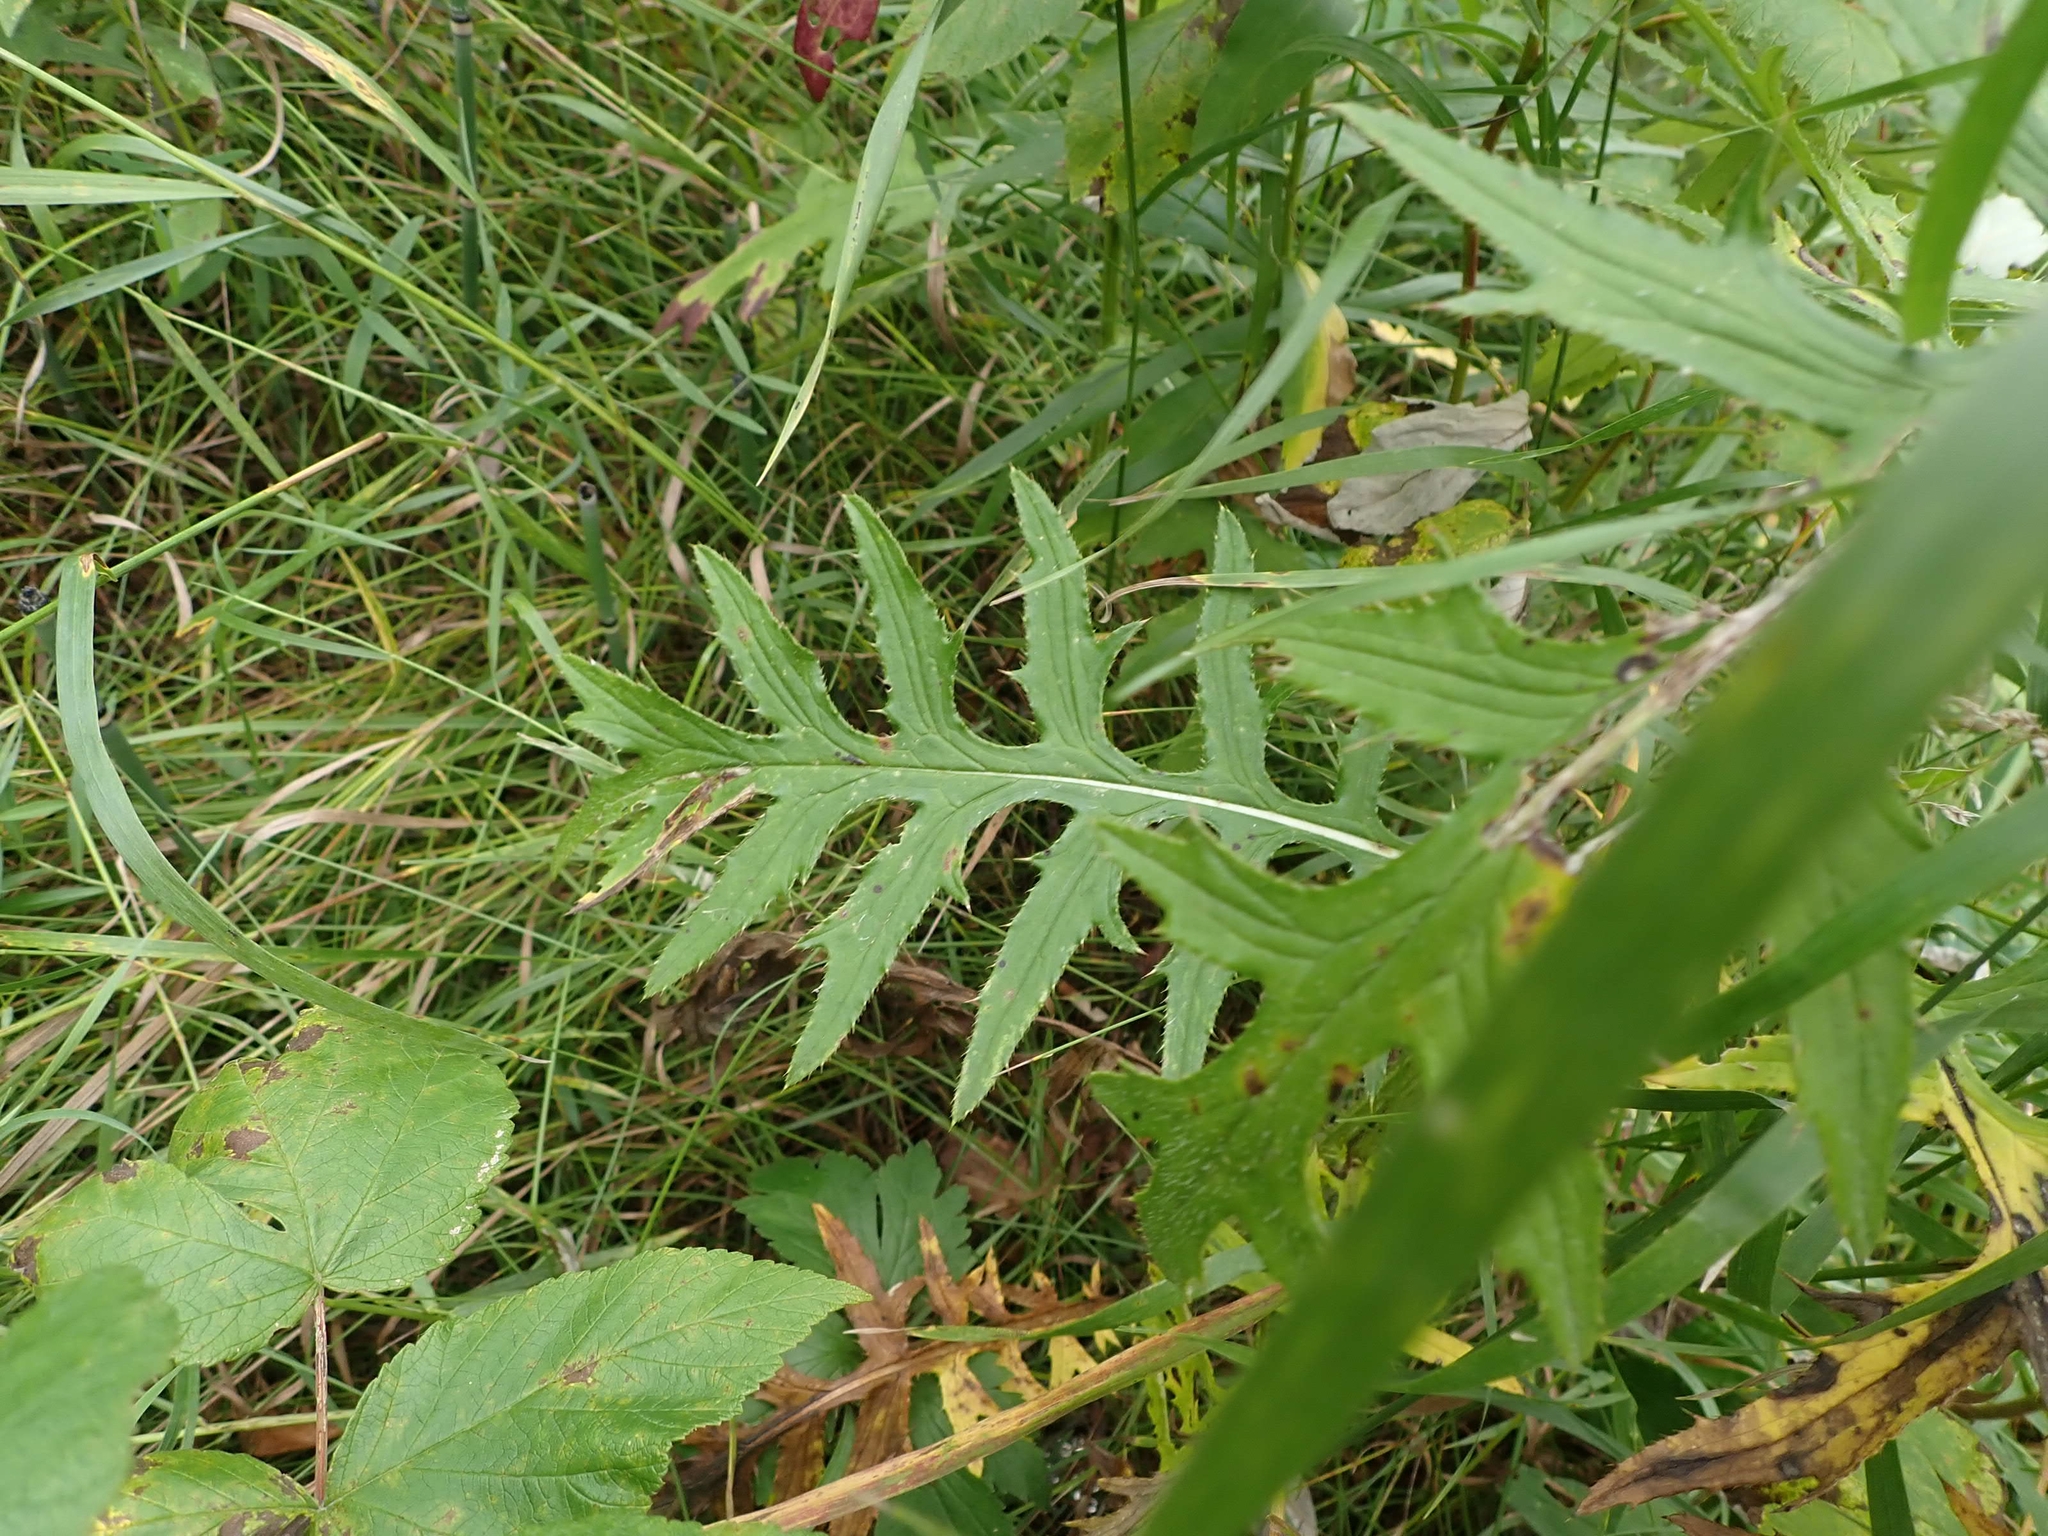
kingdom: Plantae
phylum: Tracheophyta
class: Magnoliopsida
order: Asterales
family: Asteraceae
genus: Cirsium
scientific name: Cirsium muticum
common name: Dunce-nettle
